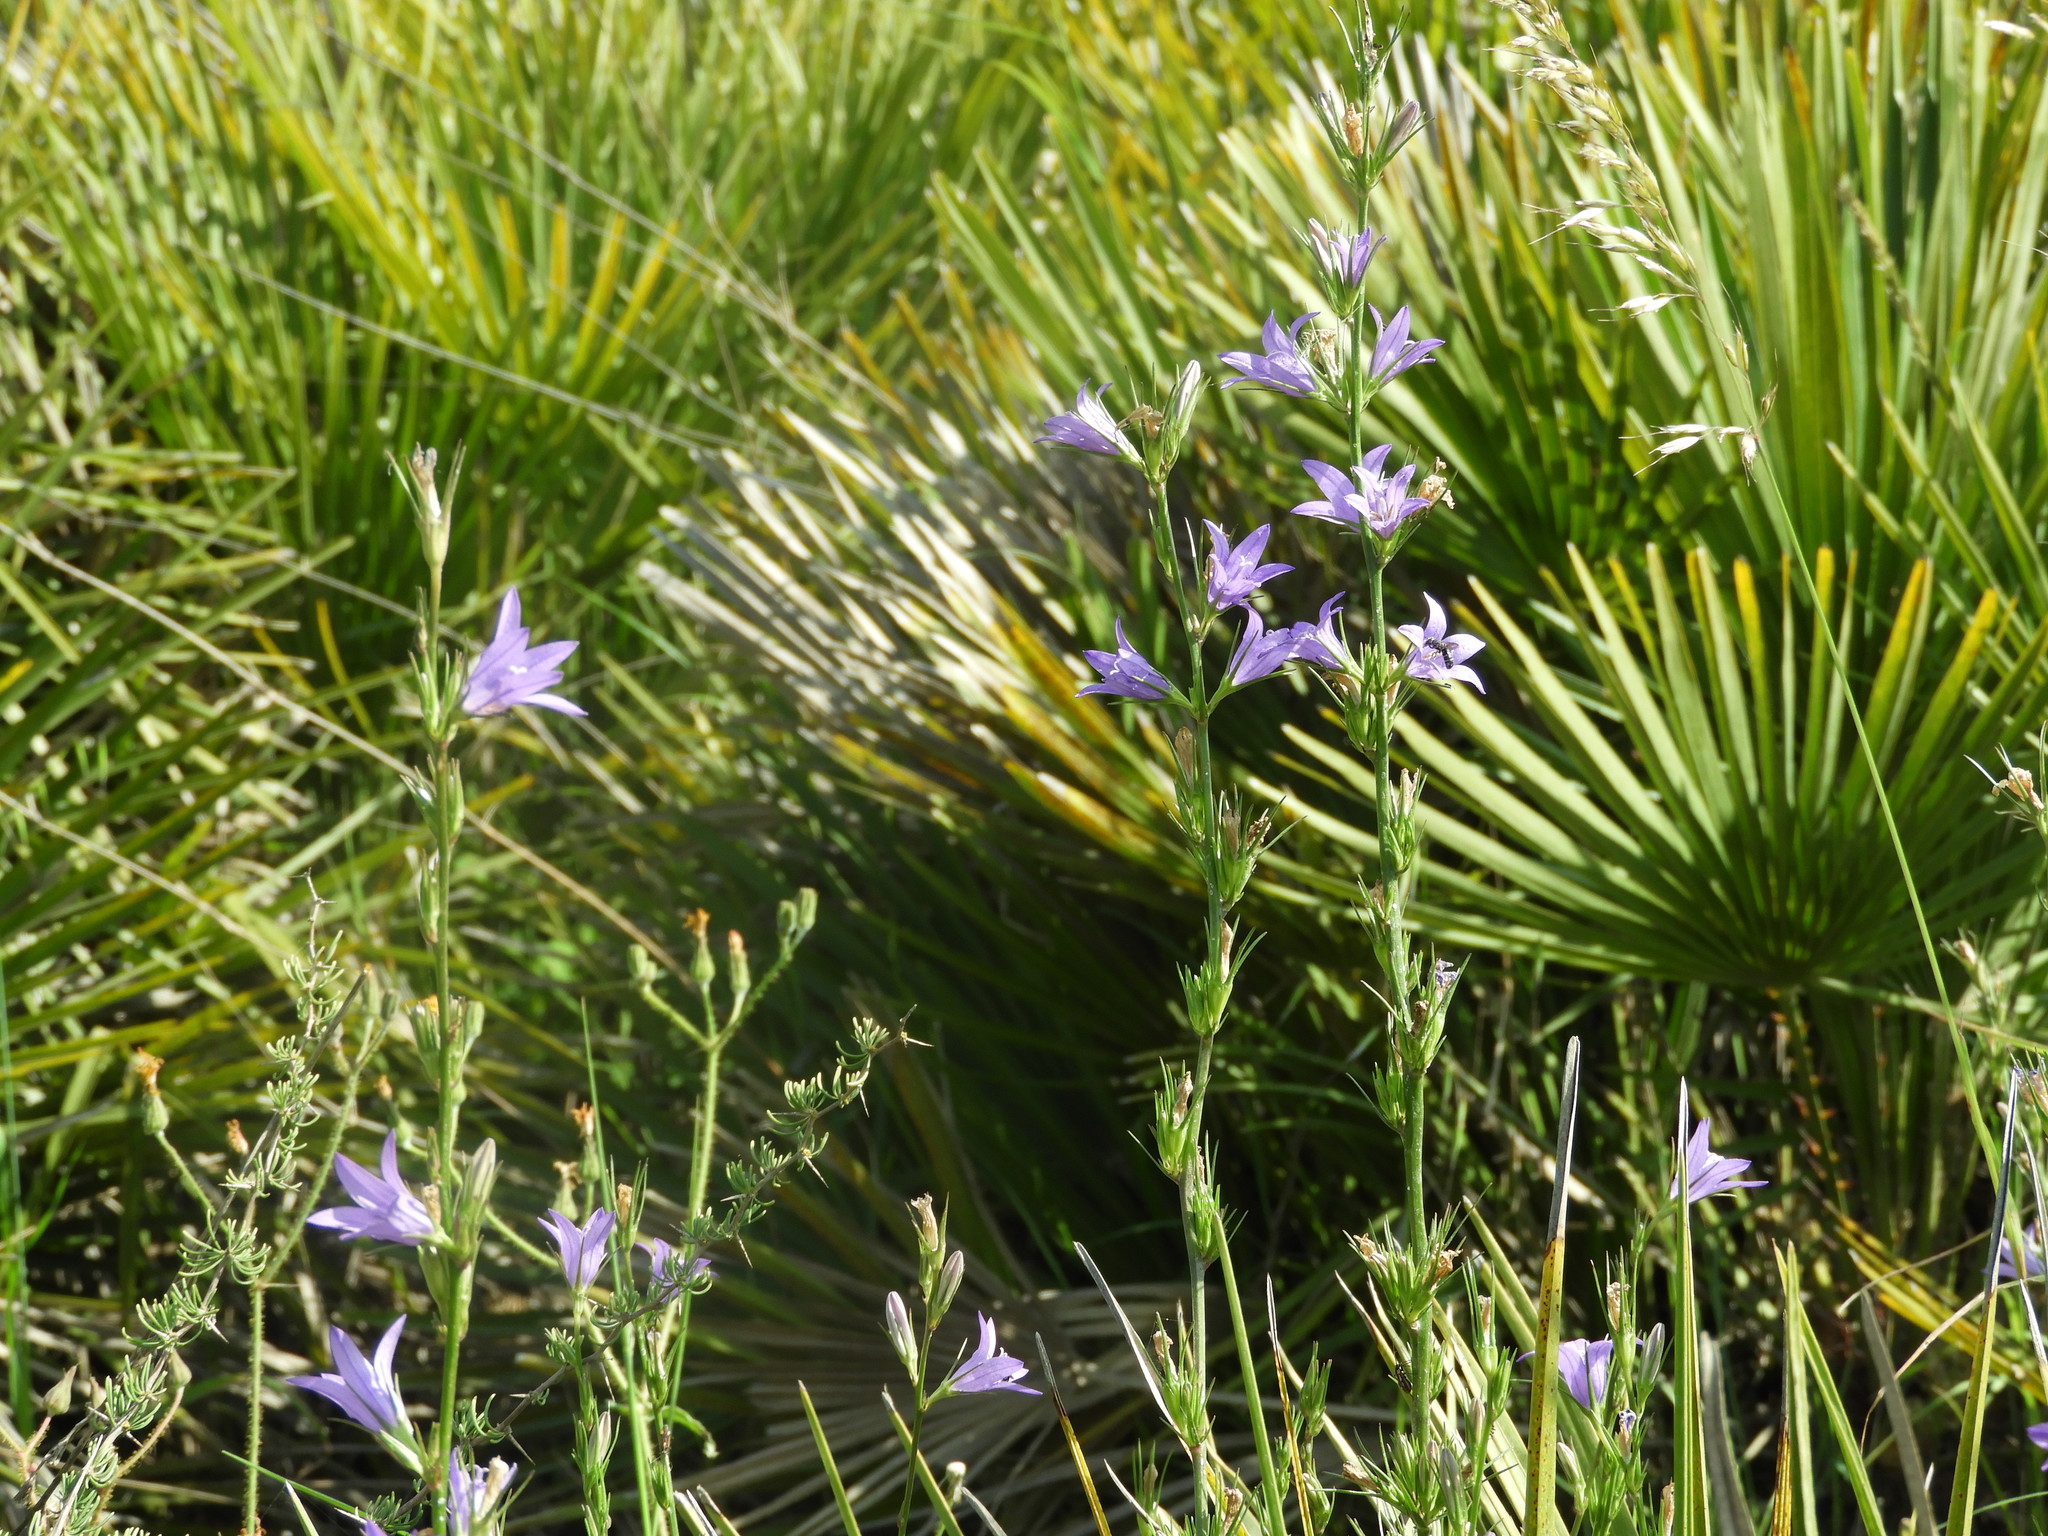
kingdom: Plantae
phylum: Tracheophyta
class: Magnoliopsida
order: Asterales
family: Campanulaceae
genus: Campanula
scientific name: Campanula rapunculus
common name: Rampion bellflower
